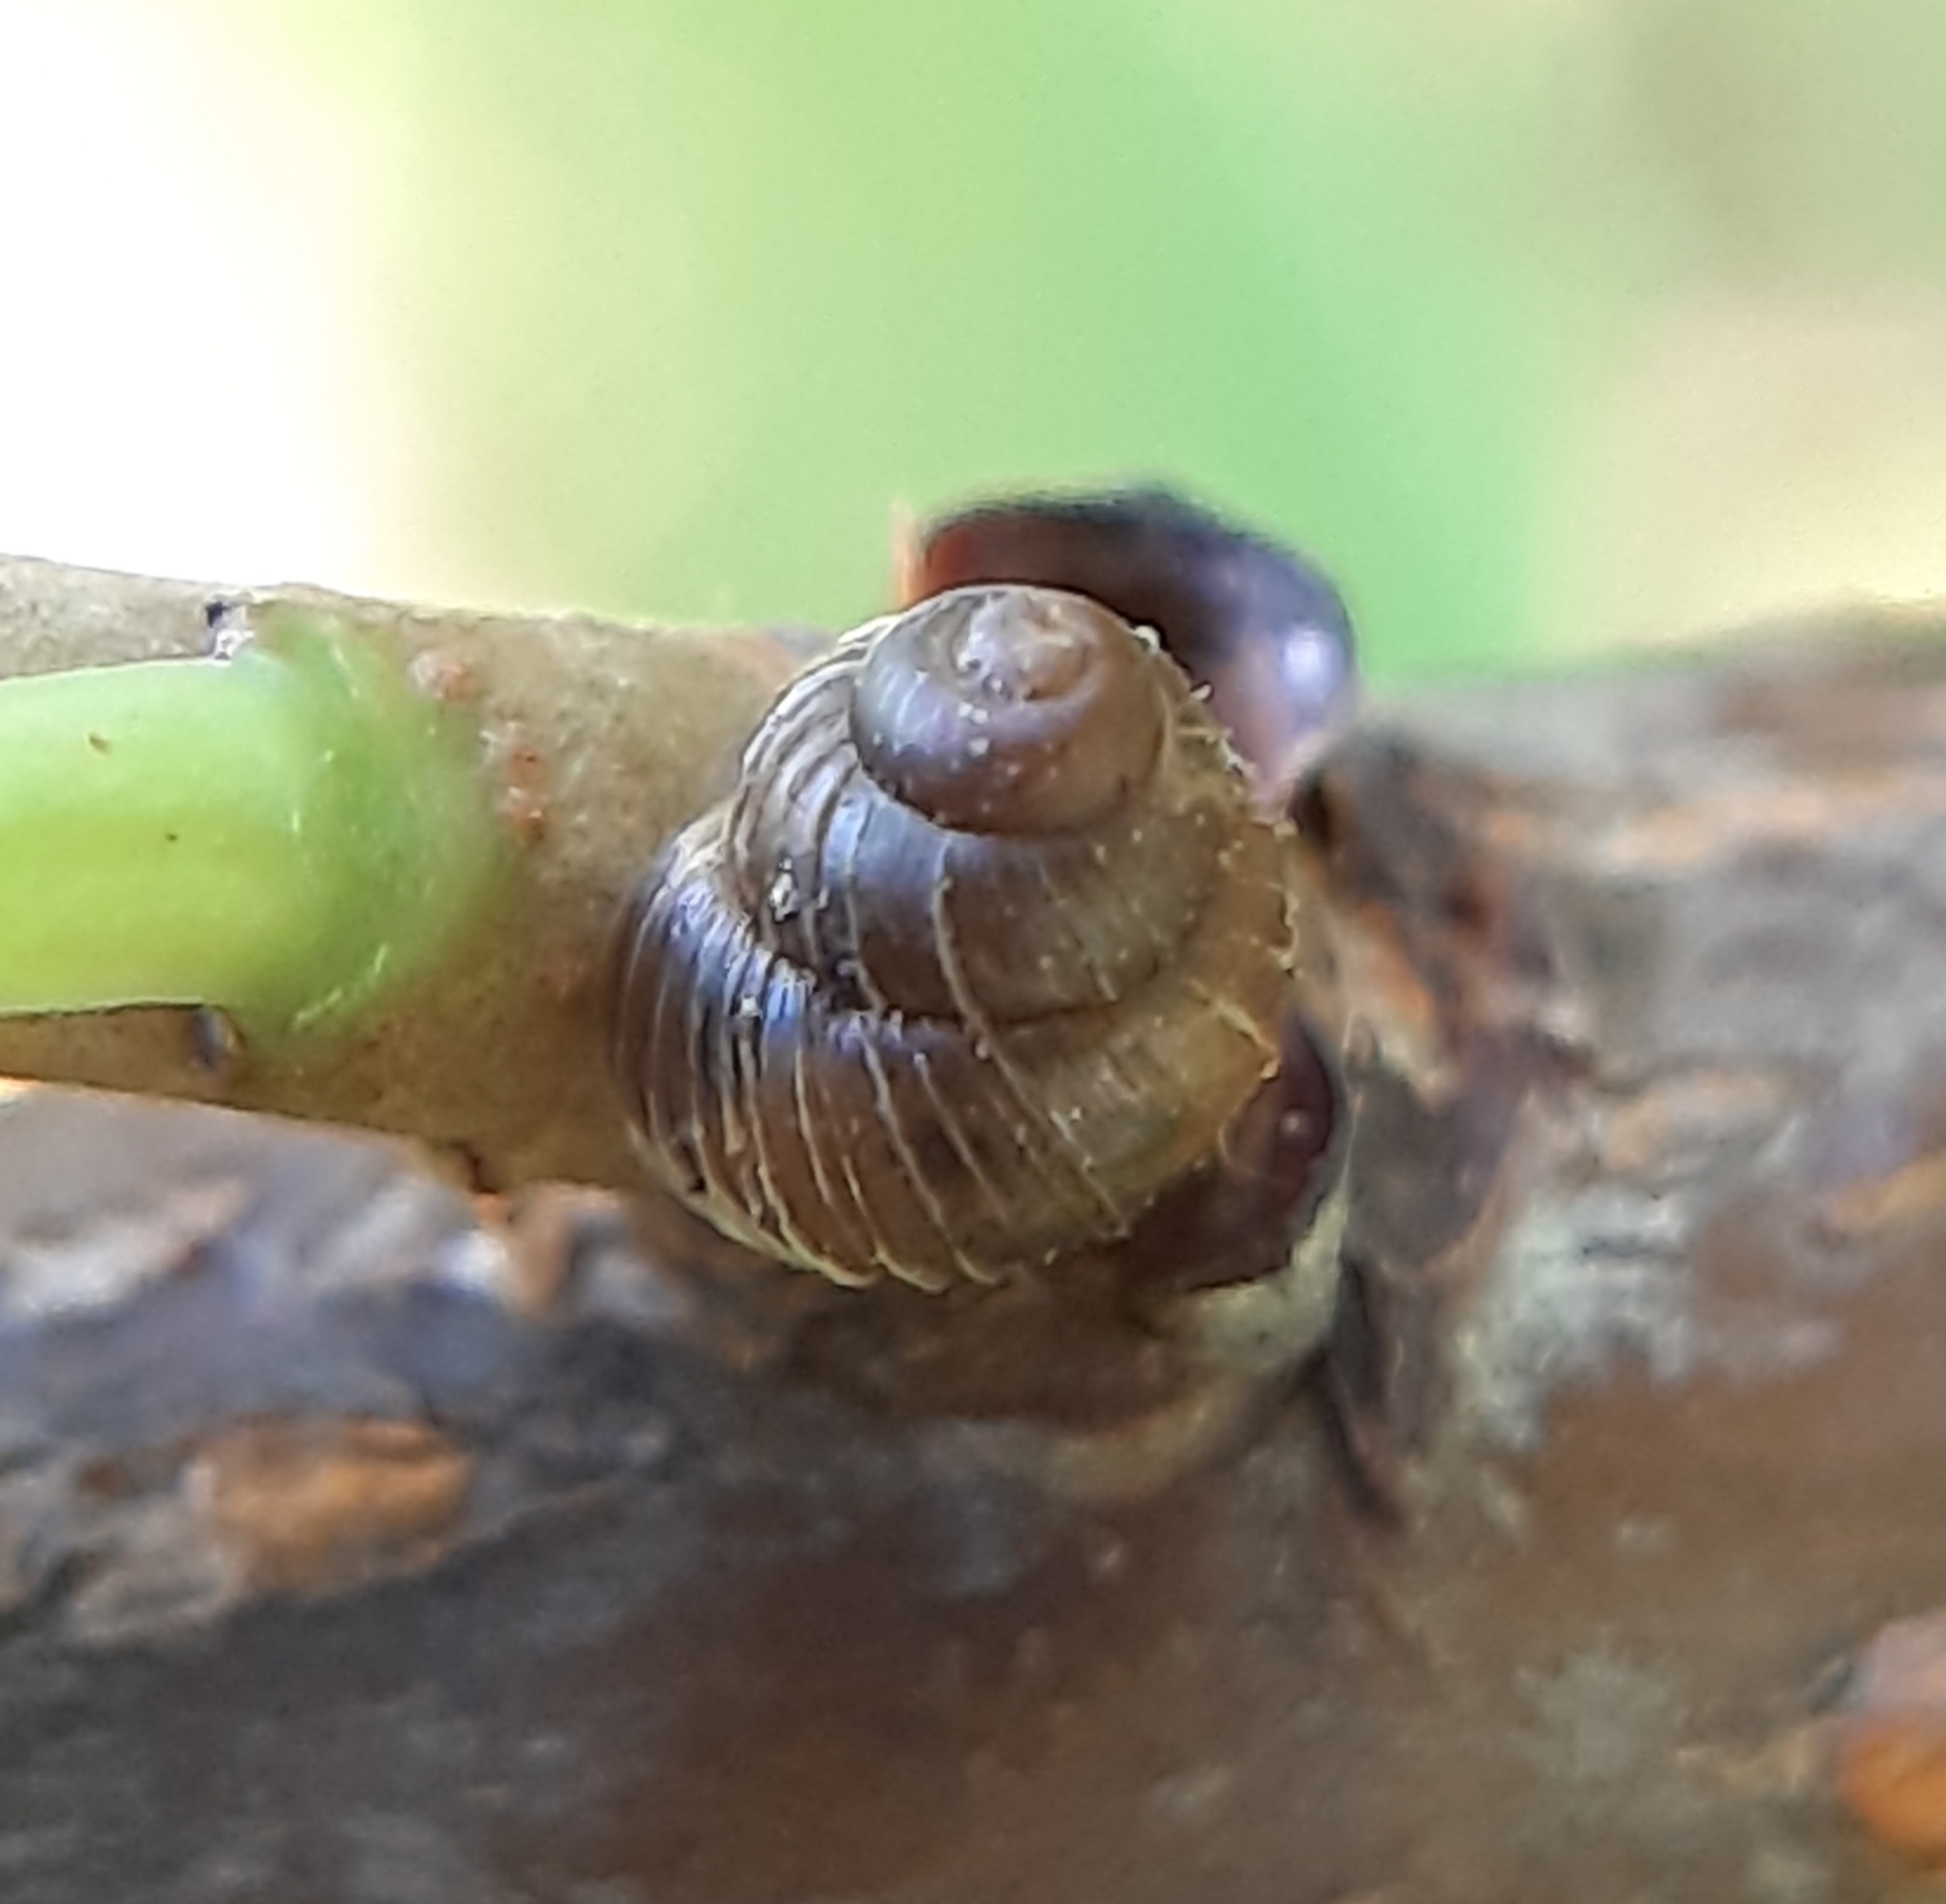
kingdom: Animalia
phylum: Mollusca
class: Gastropoda
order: Stylommatophora
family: Valloniidae
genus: Zoogenetes
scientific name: Zoogenetes harpa
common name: Boreal top
